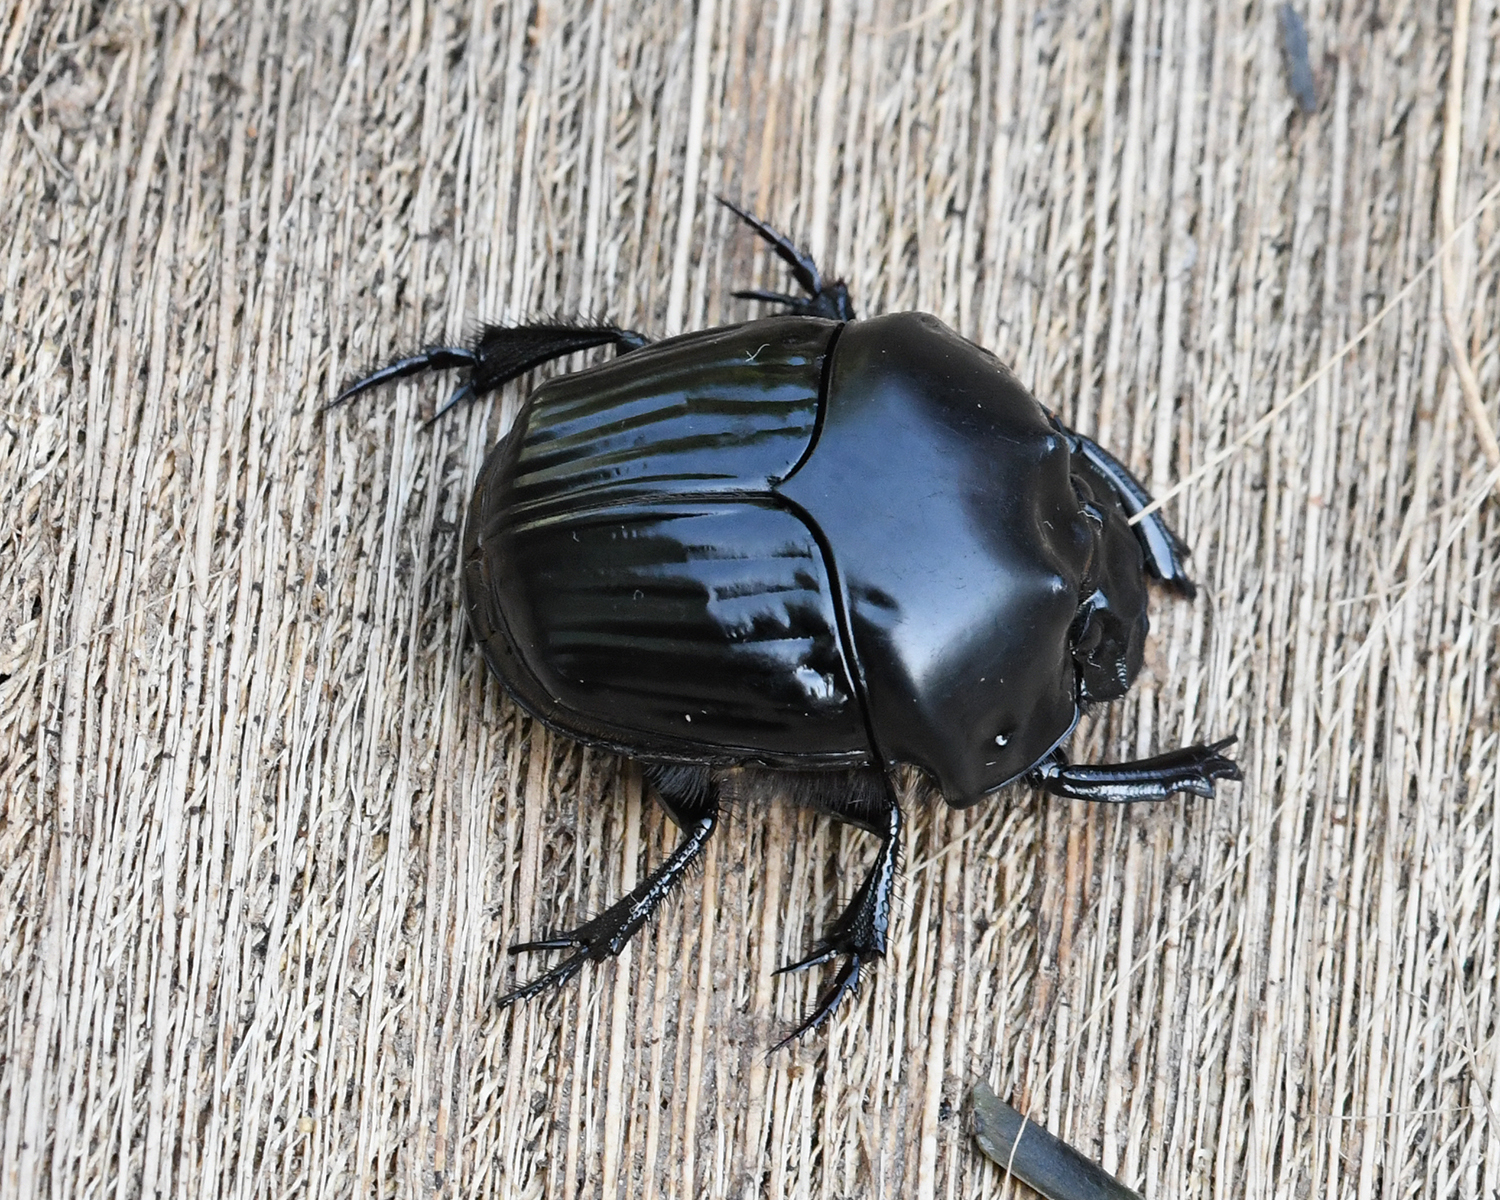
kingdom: Animalia
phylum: Arthropoda
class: Insecta
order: Coleoptera
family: Scarabaeidae
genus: Oxysternon
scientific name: Oxysternon festivum
